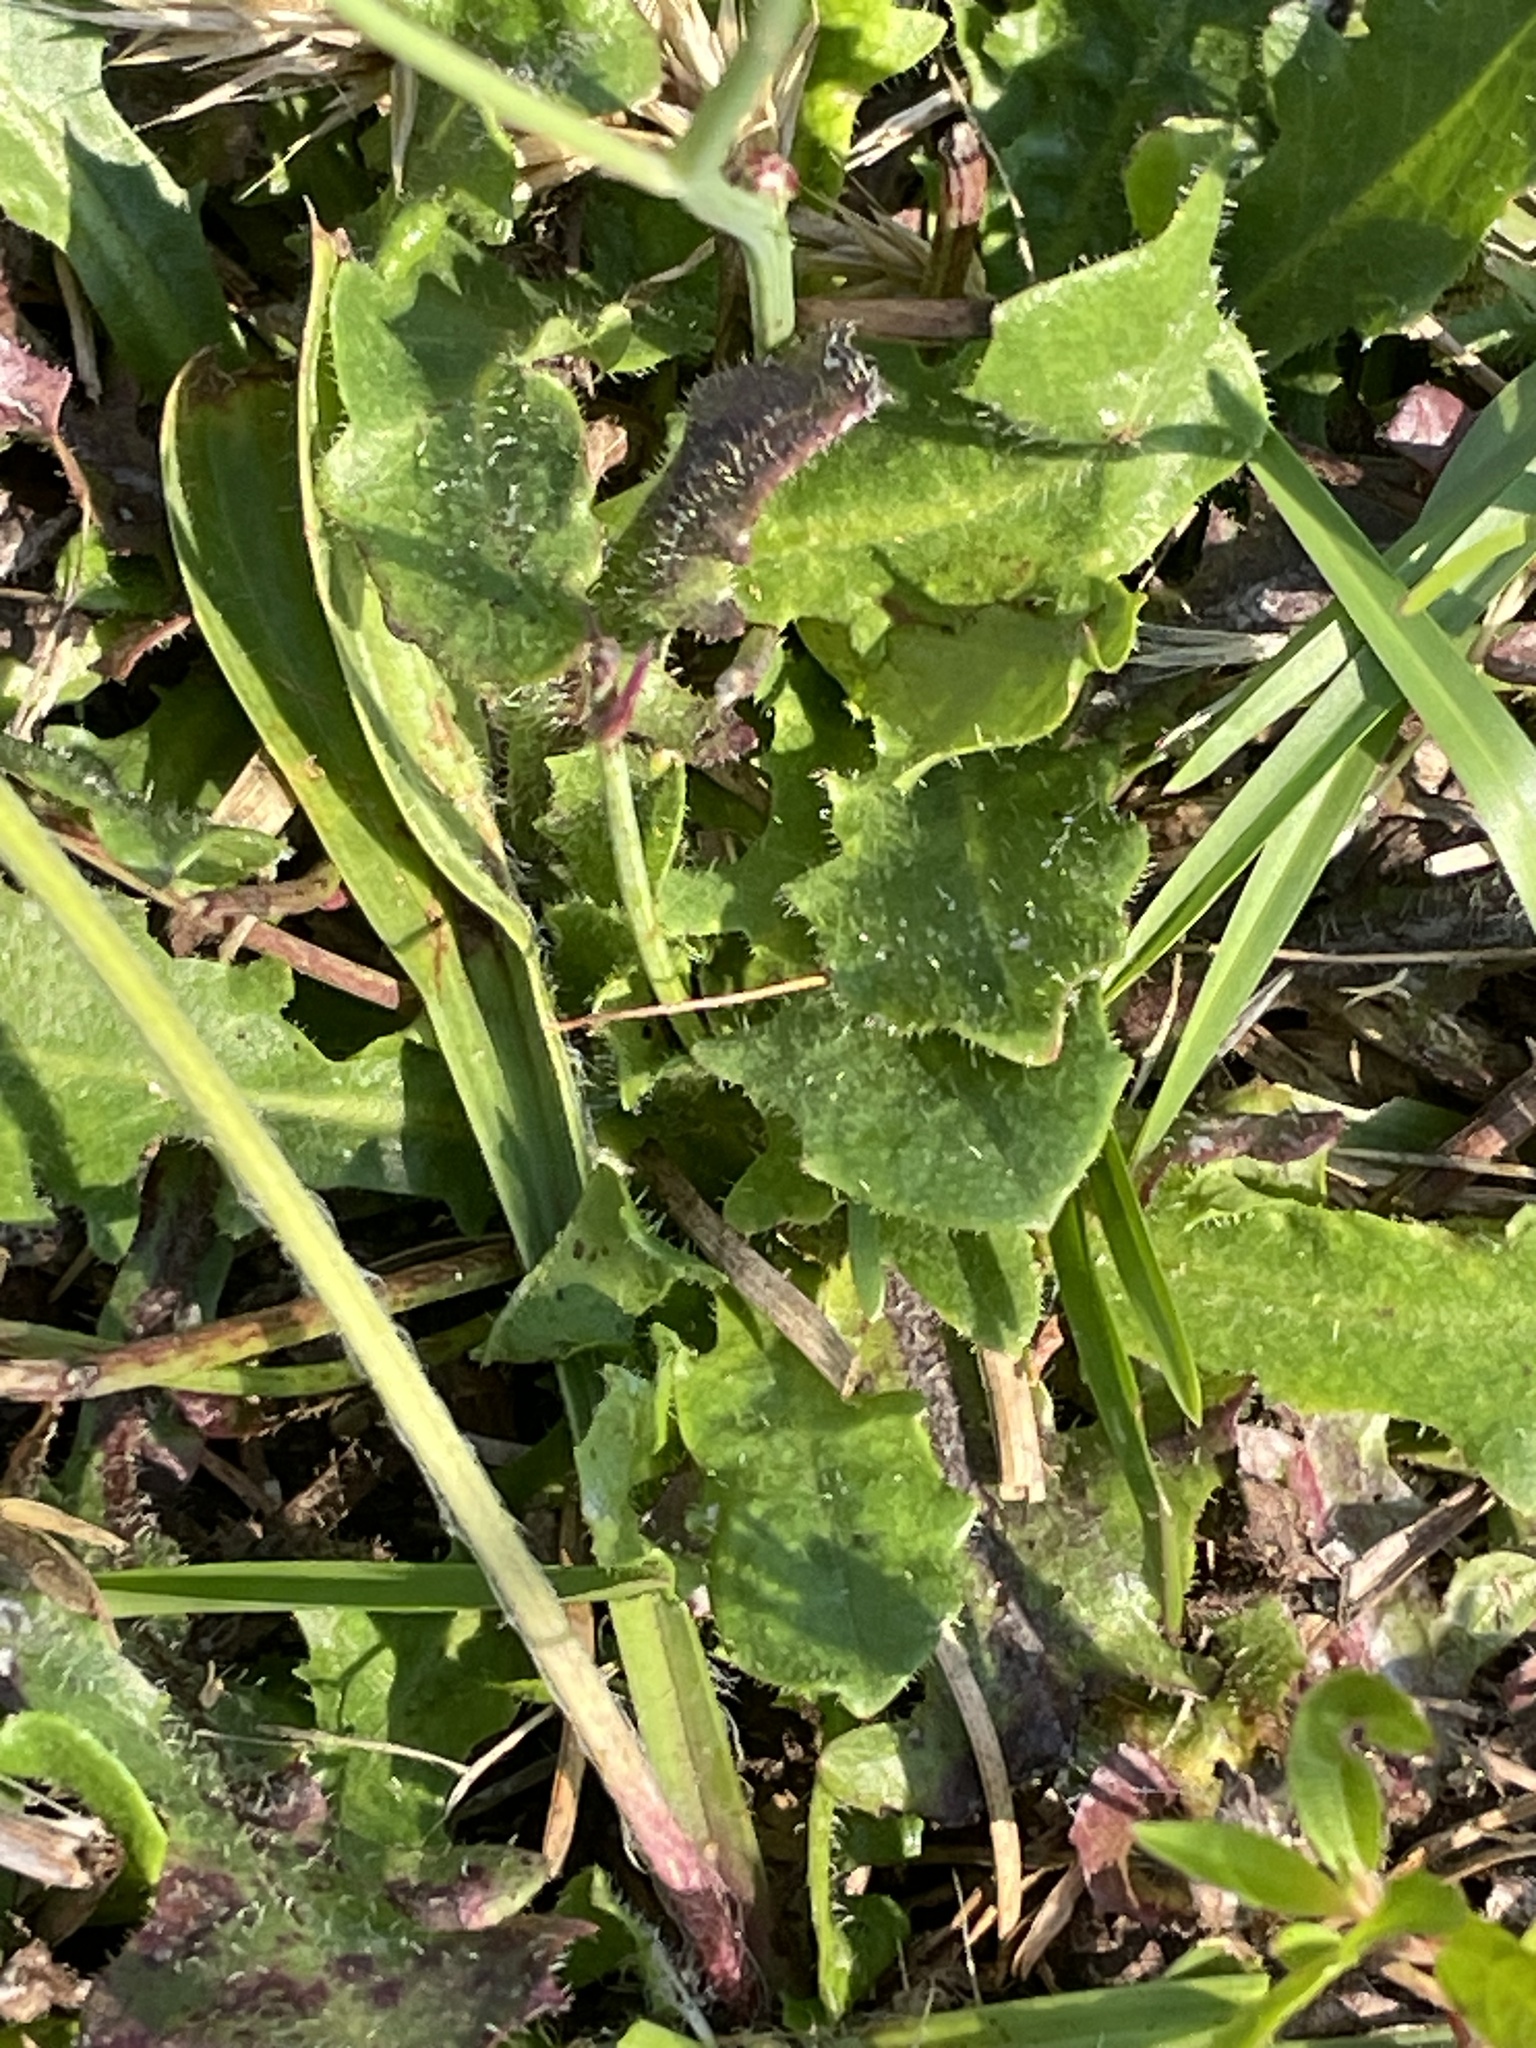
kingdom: Plantae
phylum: Tracheophyta
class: Magnoliopsida
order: Asterales
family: Asteraceae
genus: Hypochaeris
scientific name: Hypochaeris radicata
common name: Flatweed
